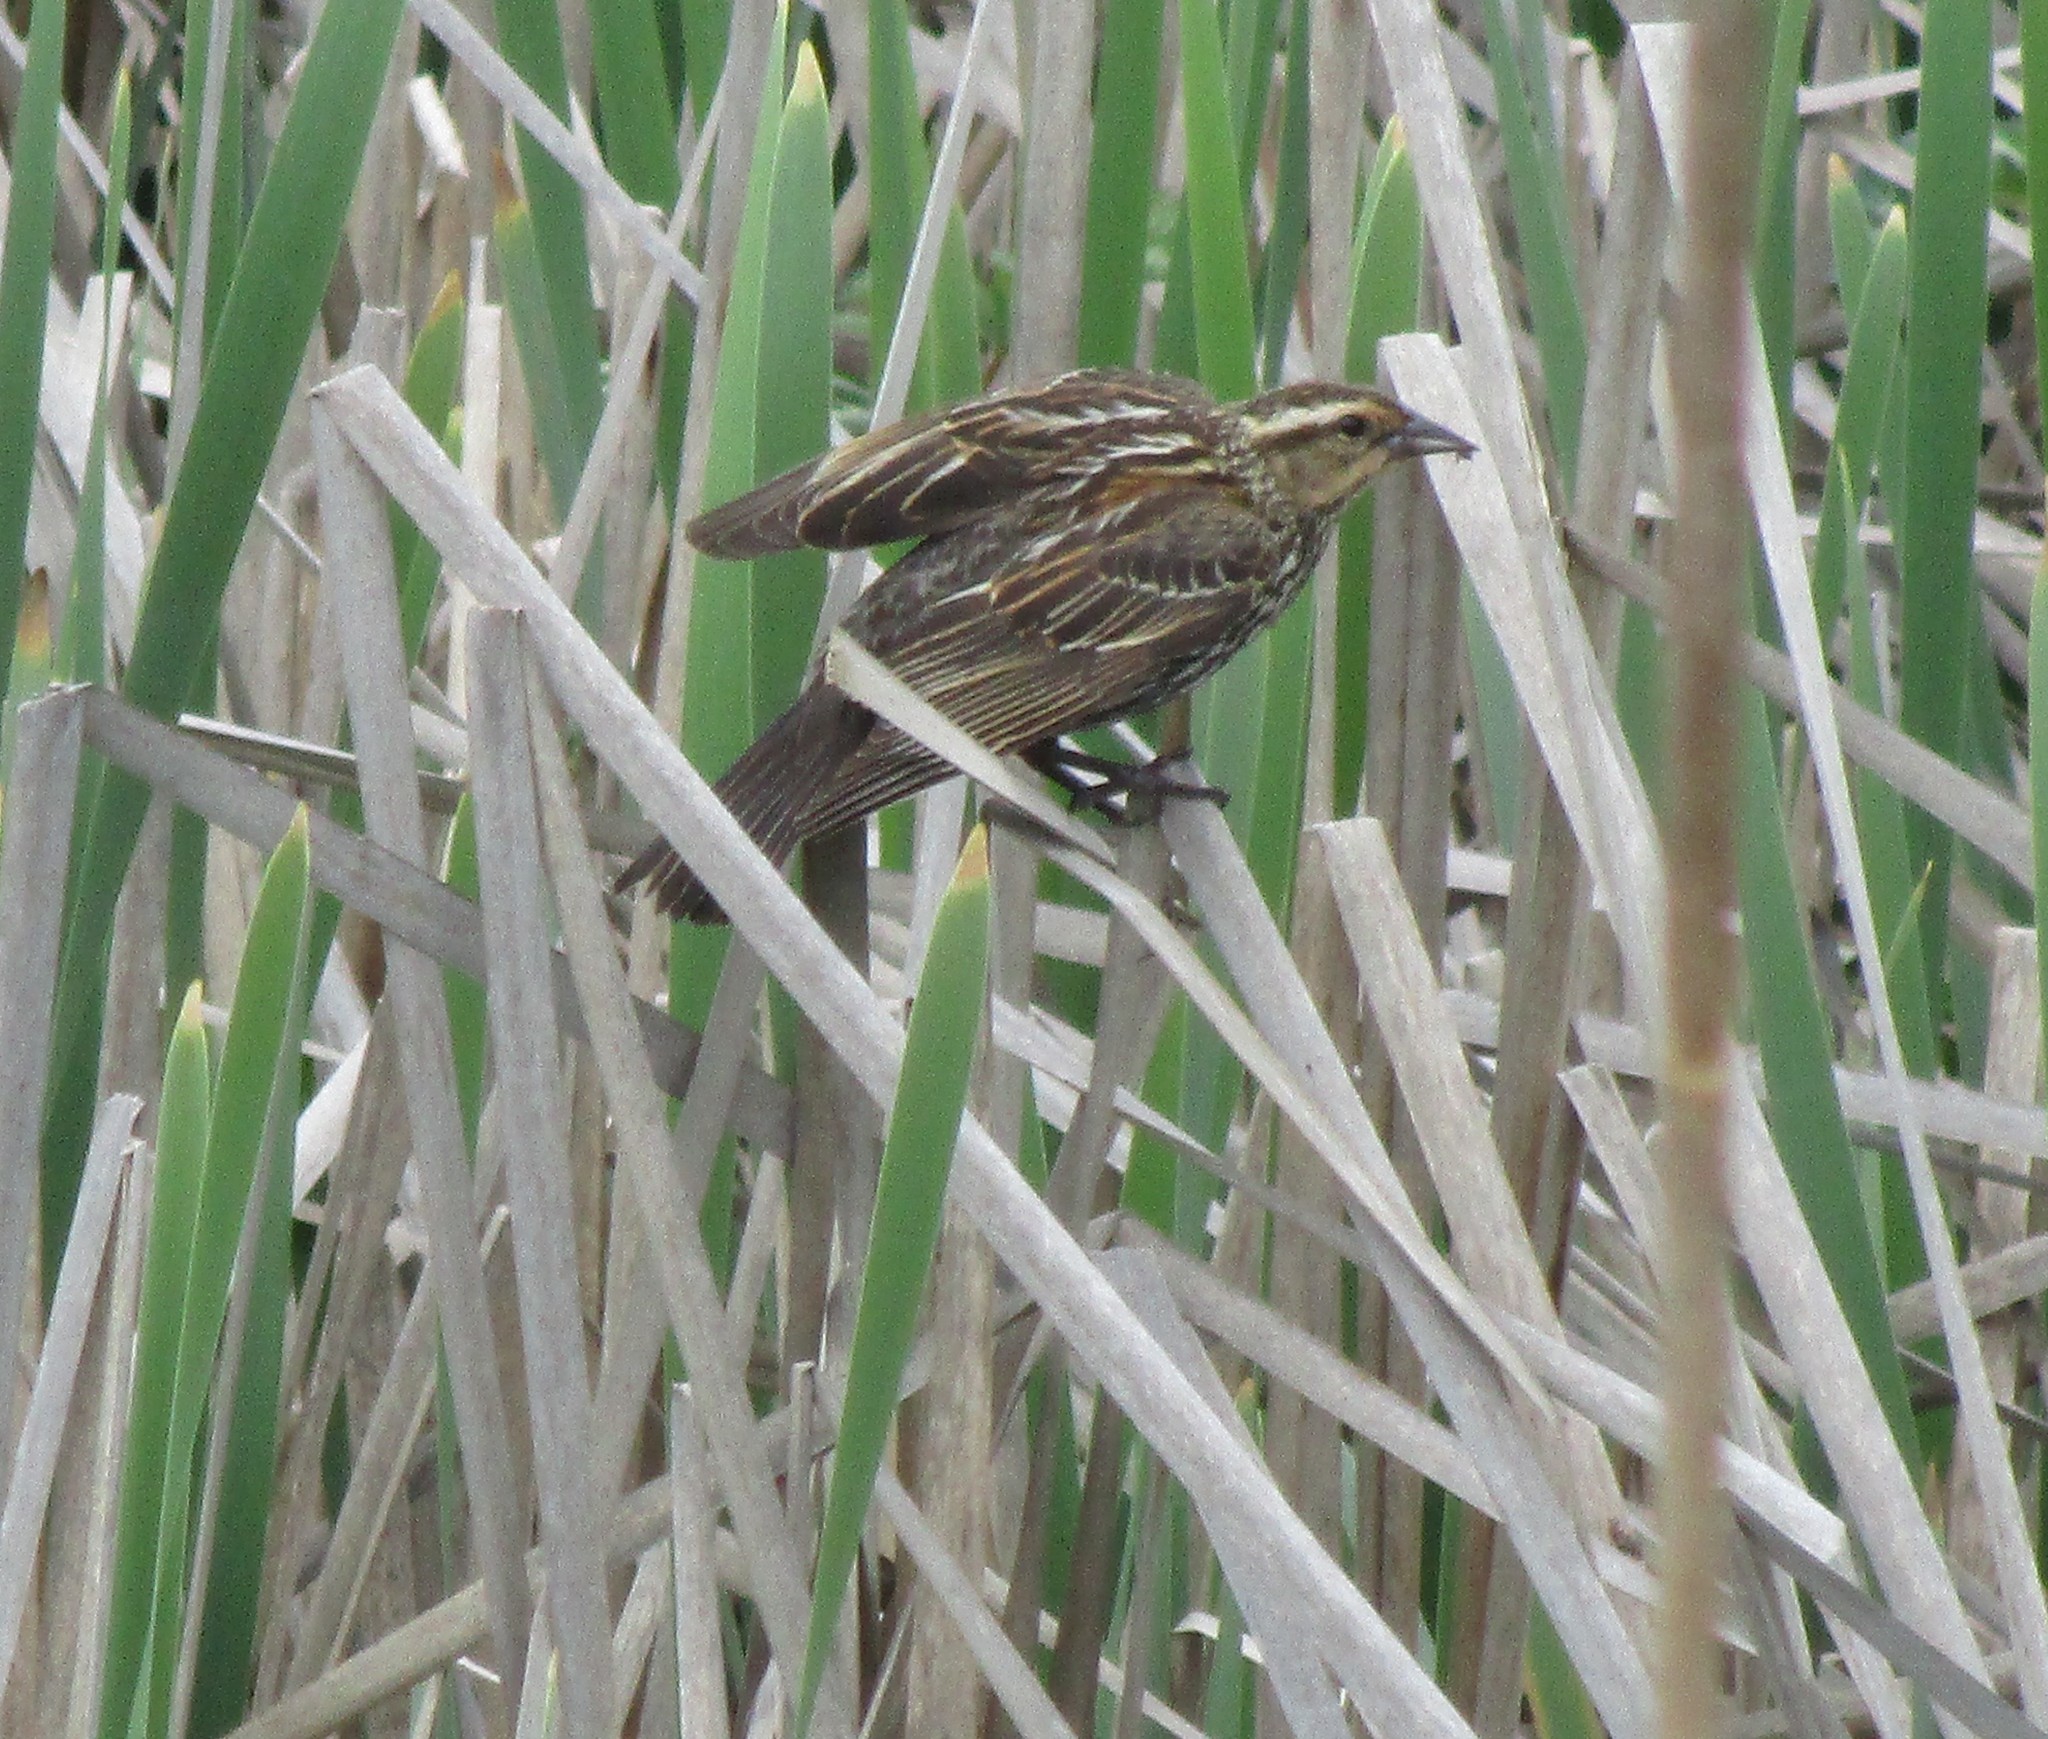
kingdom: Animalia
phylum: Chordata
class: Aves
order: Passeriformes
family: Icteridae
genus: Agelaius
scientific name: Agelaius phoeniceus
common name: Red-winged blackbird
